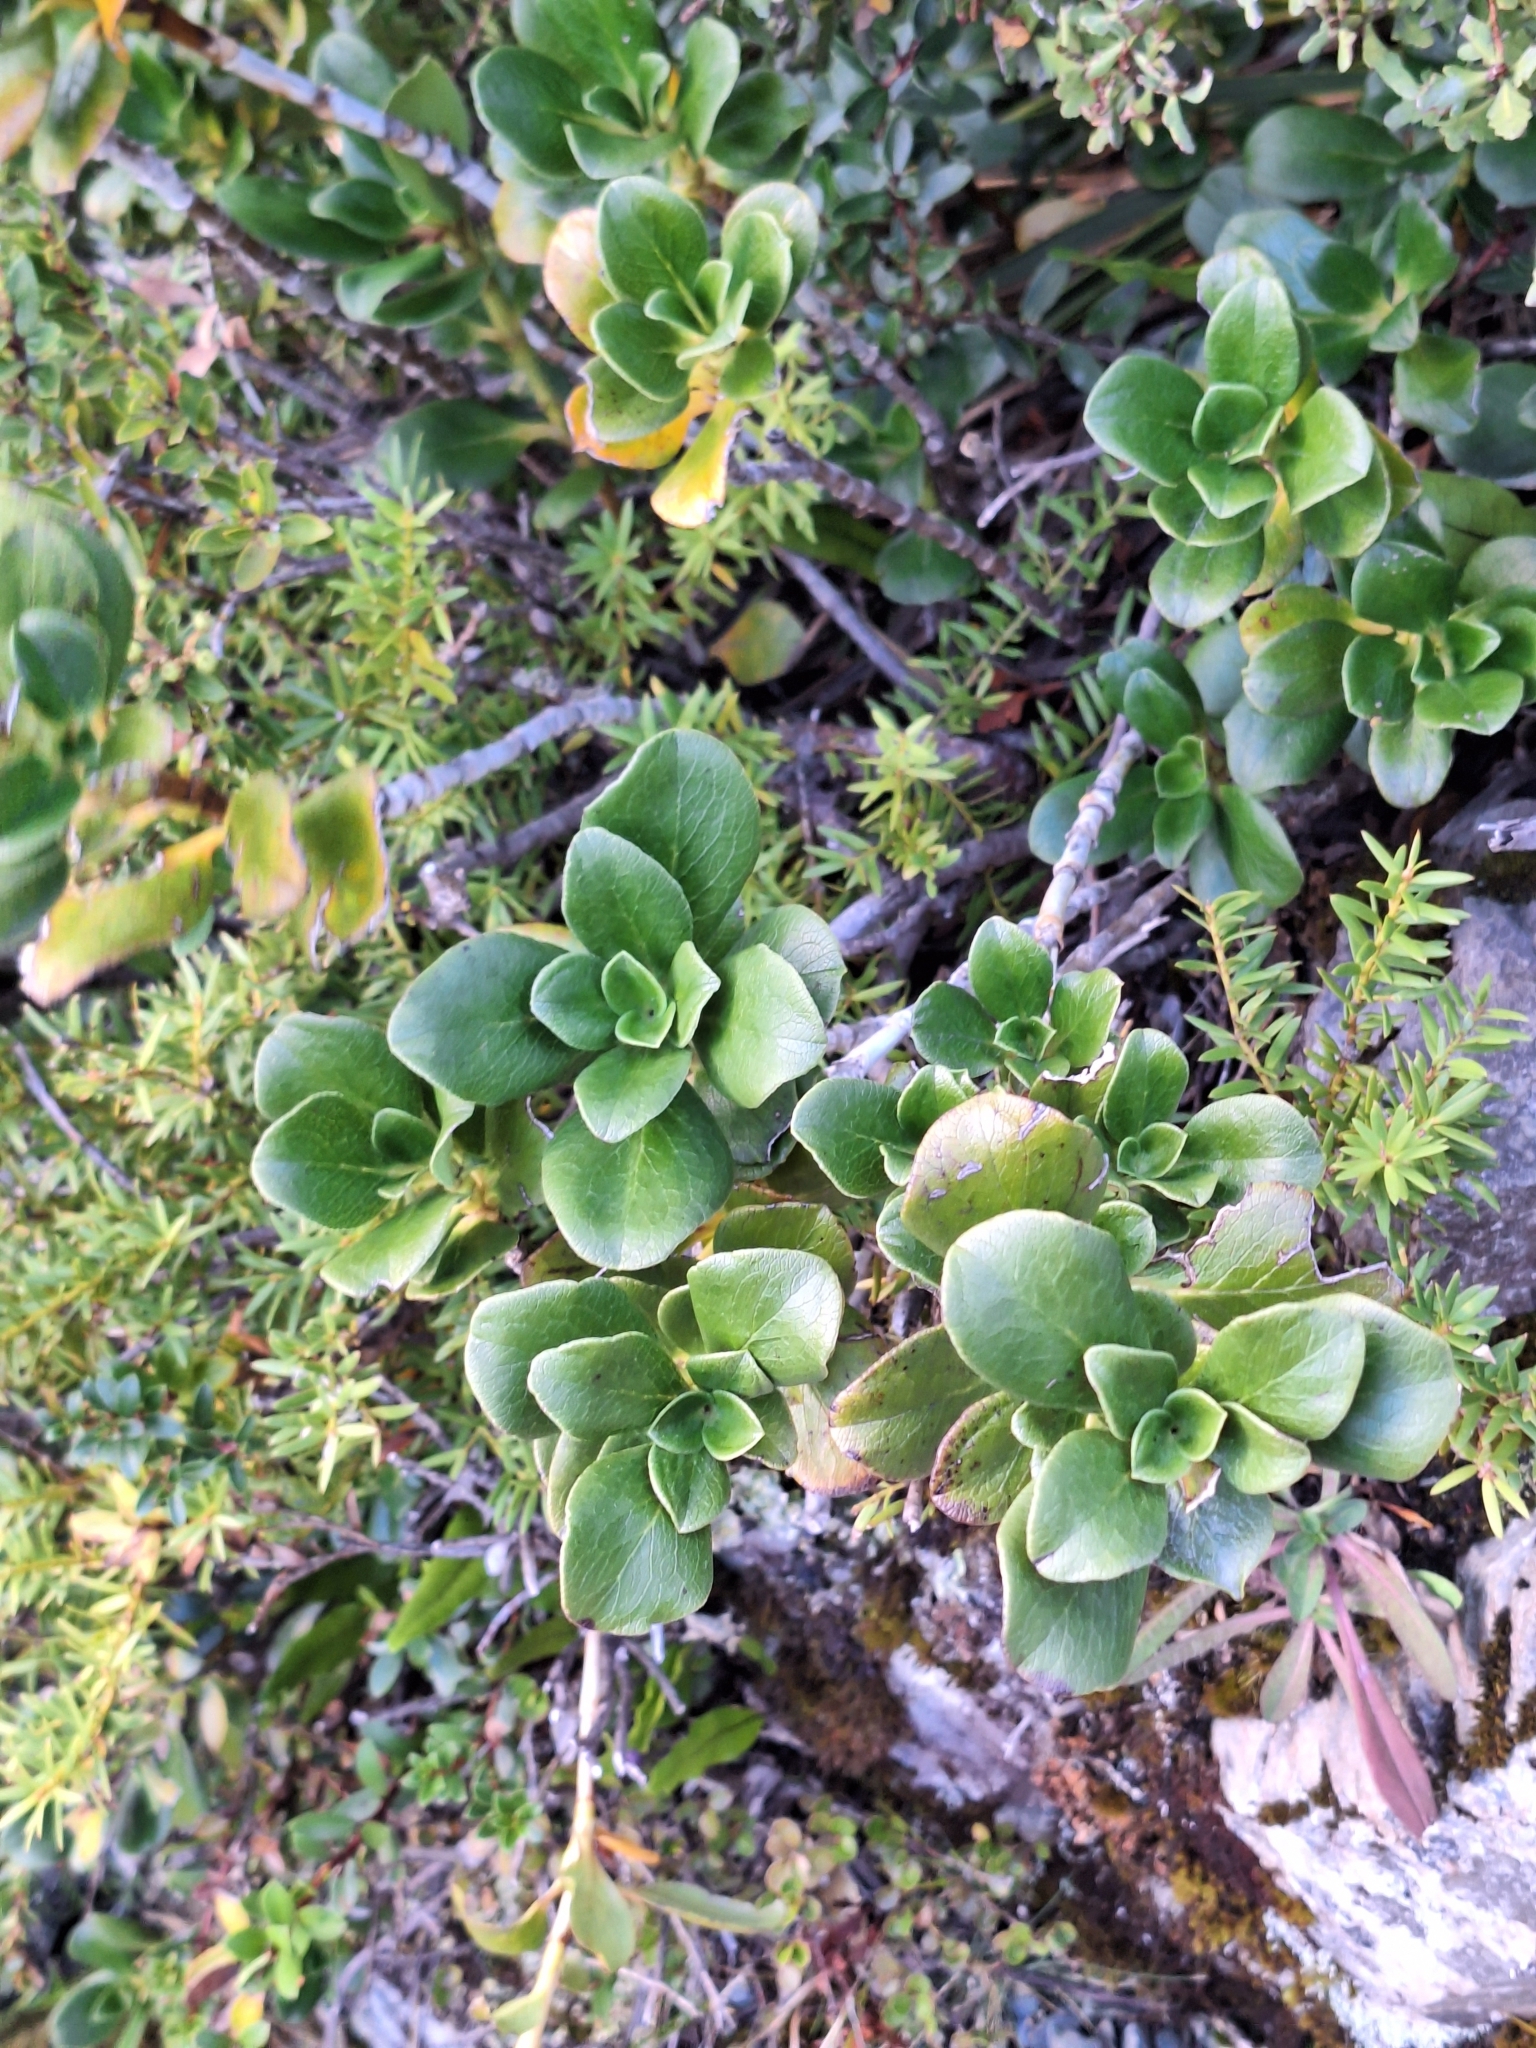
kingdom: Plantae
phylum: Tracheophyta
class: Magnoliopsida
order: Gentianales
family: Rubiaceae
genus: Coprosma
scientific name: Coprosma serrulata
